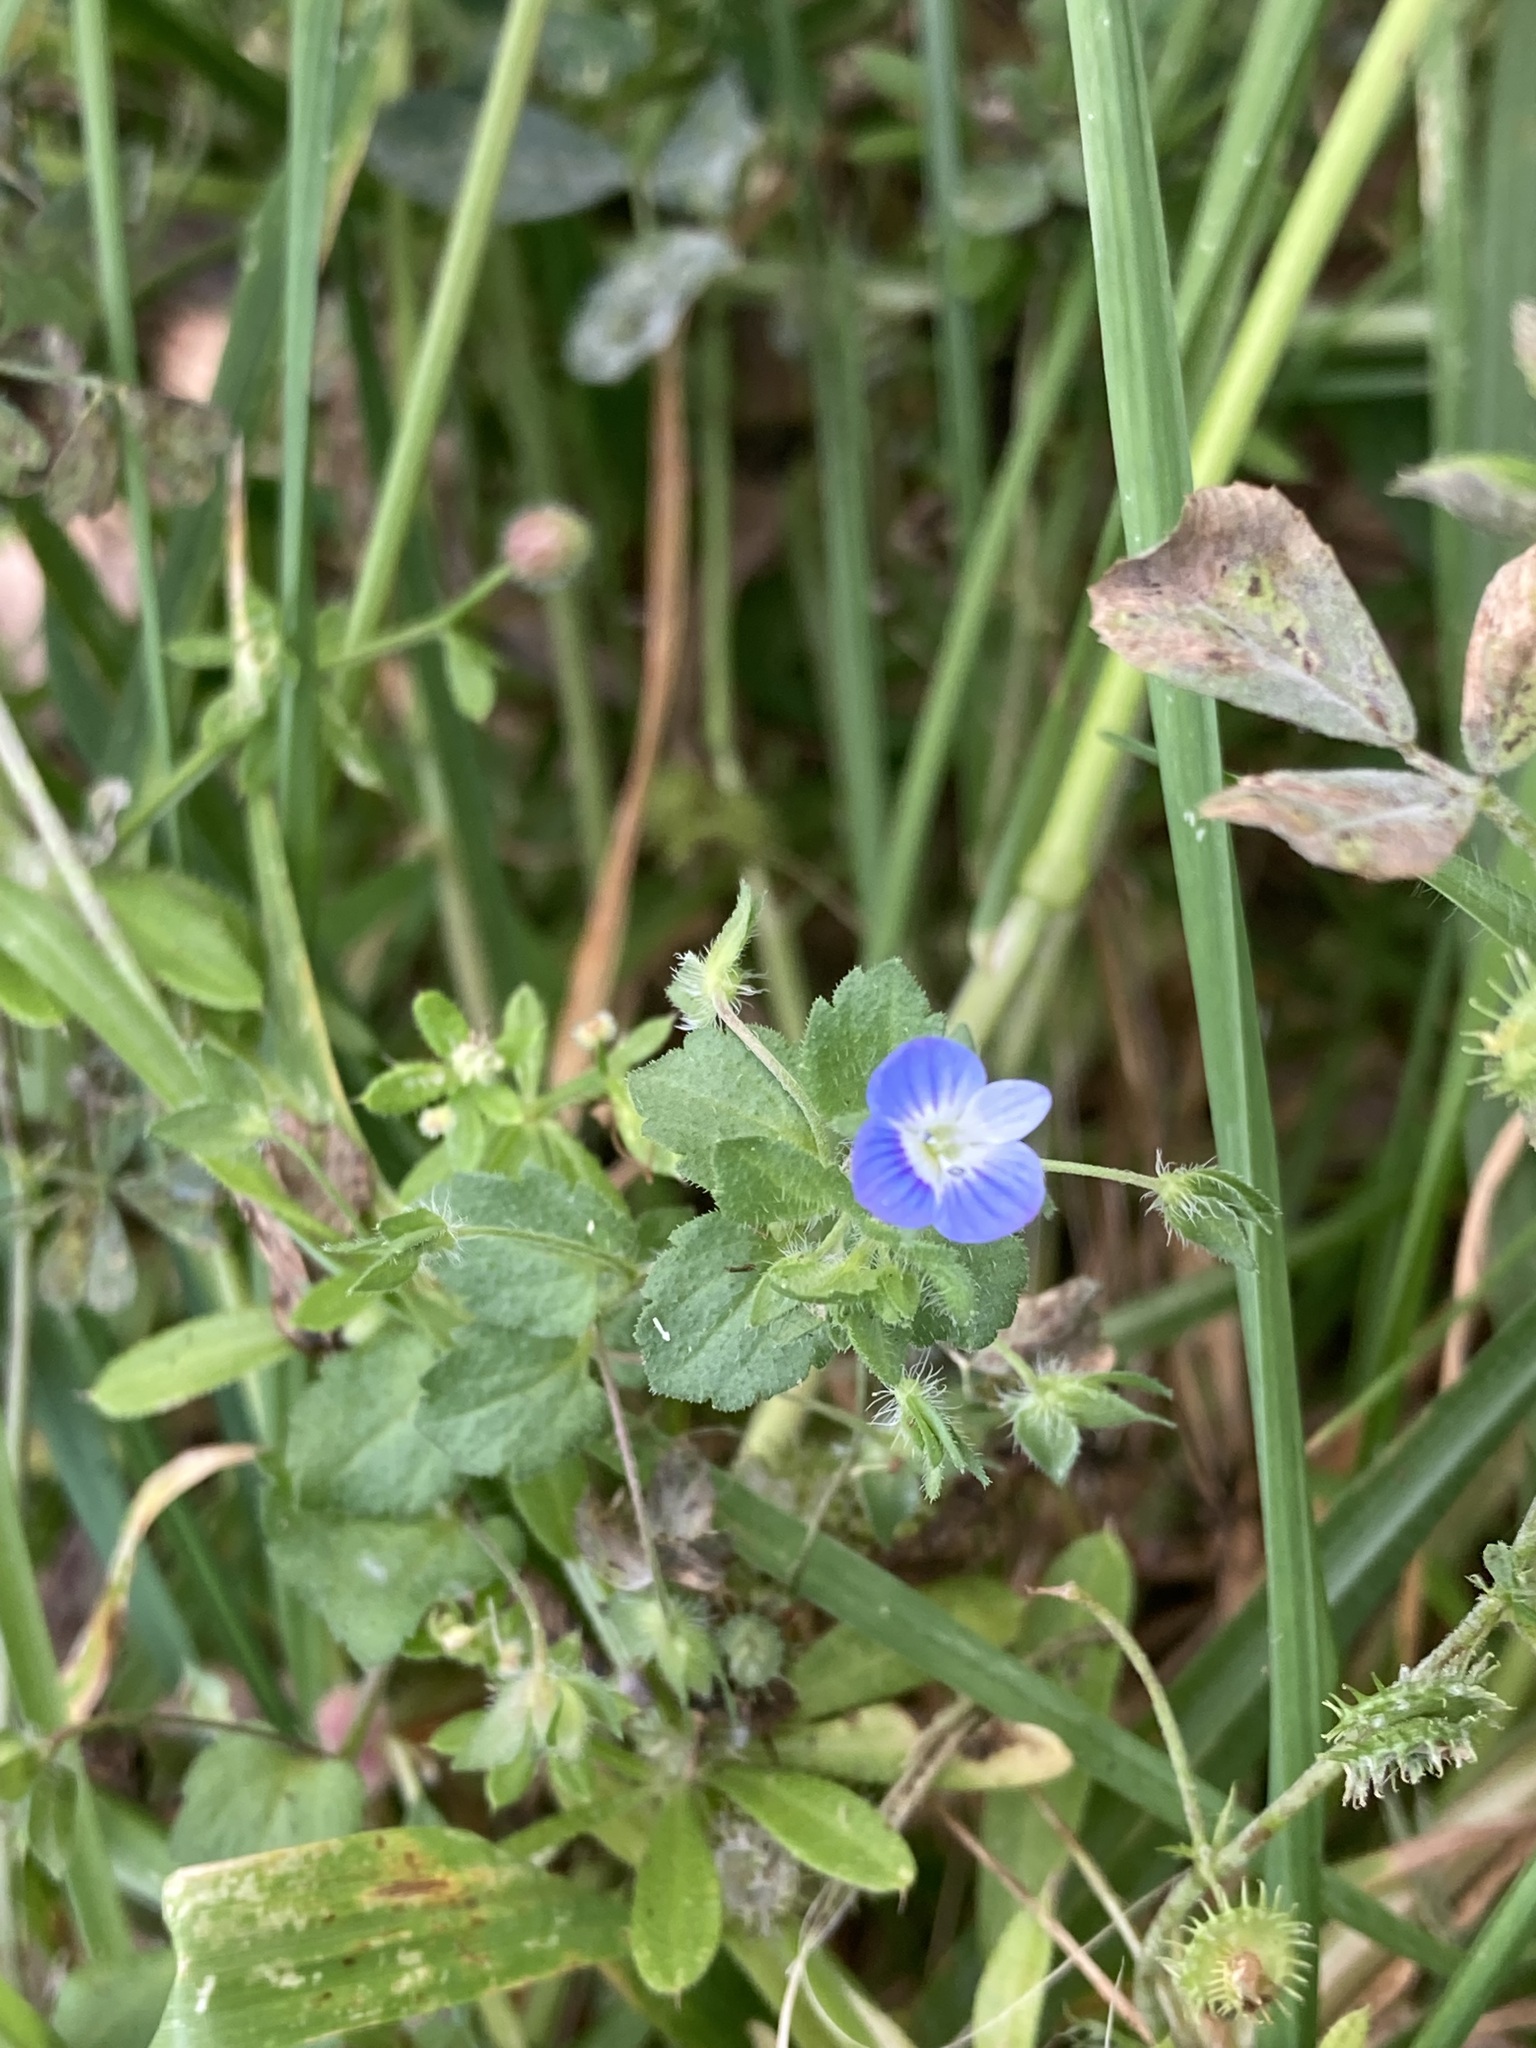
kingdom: Plantae
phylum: Tracheophyta
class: Magnoliopsida
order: Lamiales
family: Plantaginaceae
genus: Veronica
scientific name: Veronica persica
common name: Common field-speedwell
